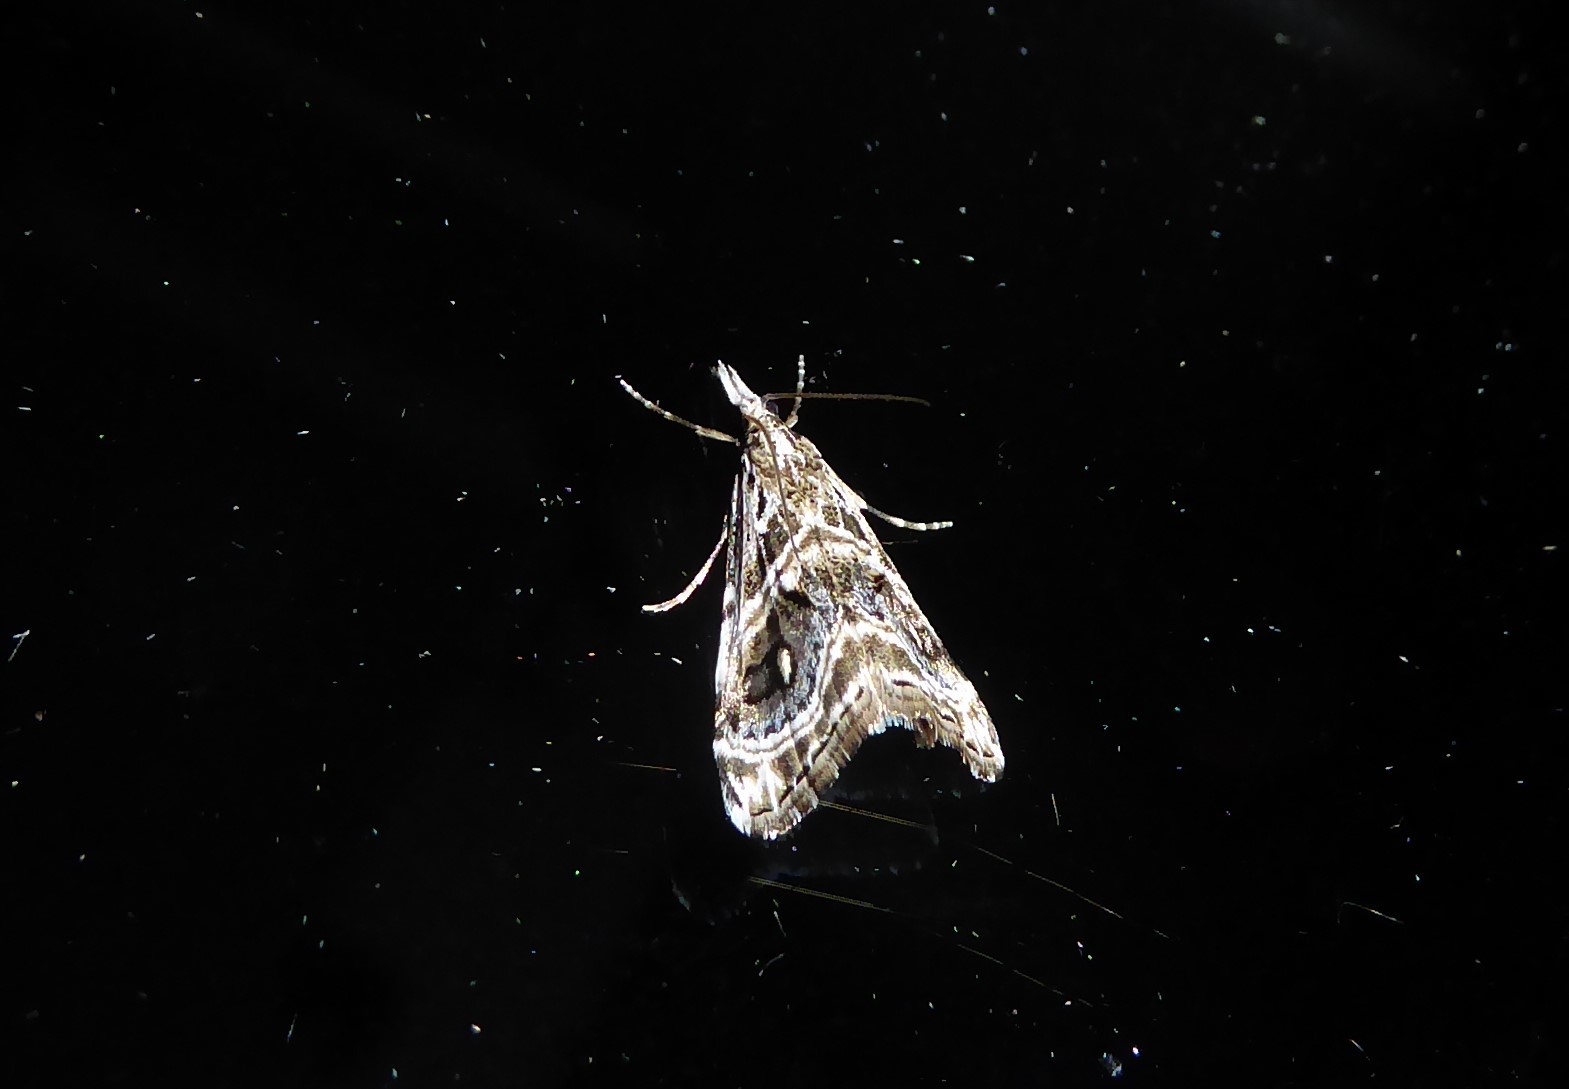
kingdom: Animalia
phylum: Arthropoda
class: Insecta
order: Lepidoptera
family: Crambidae
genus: Gadira
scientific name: Gadira acerella
